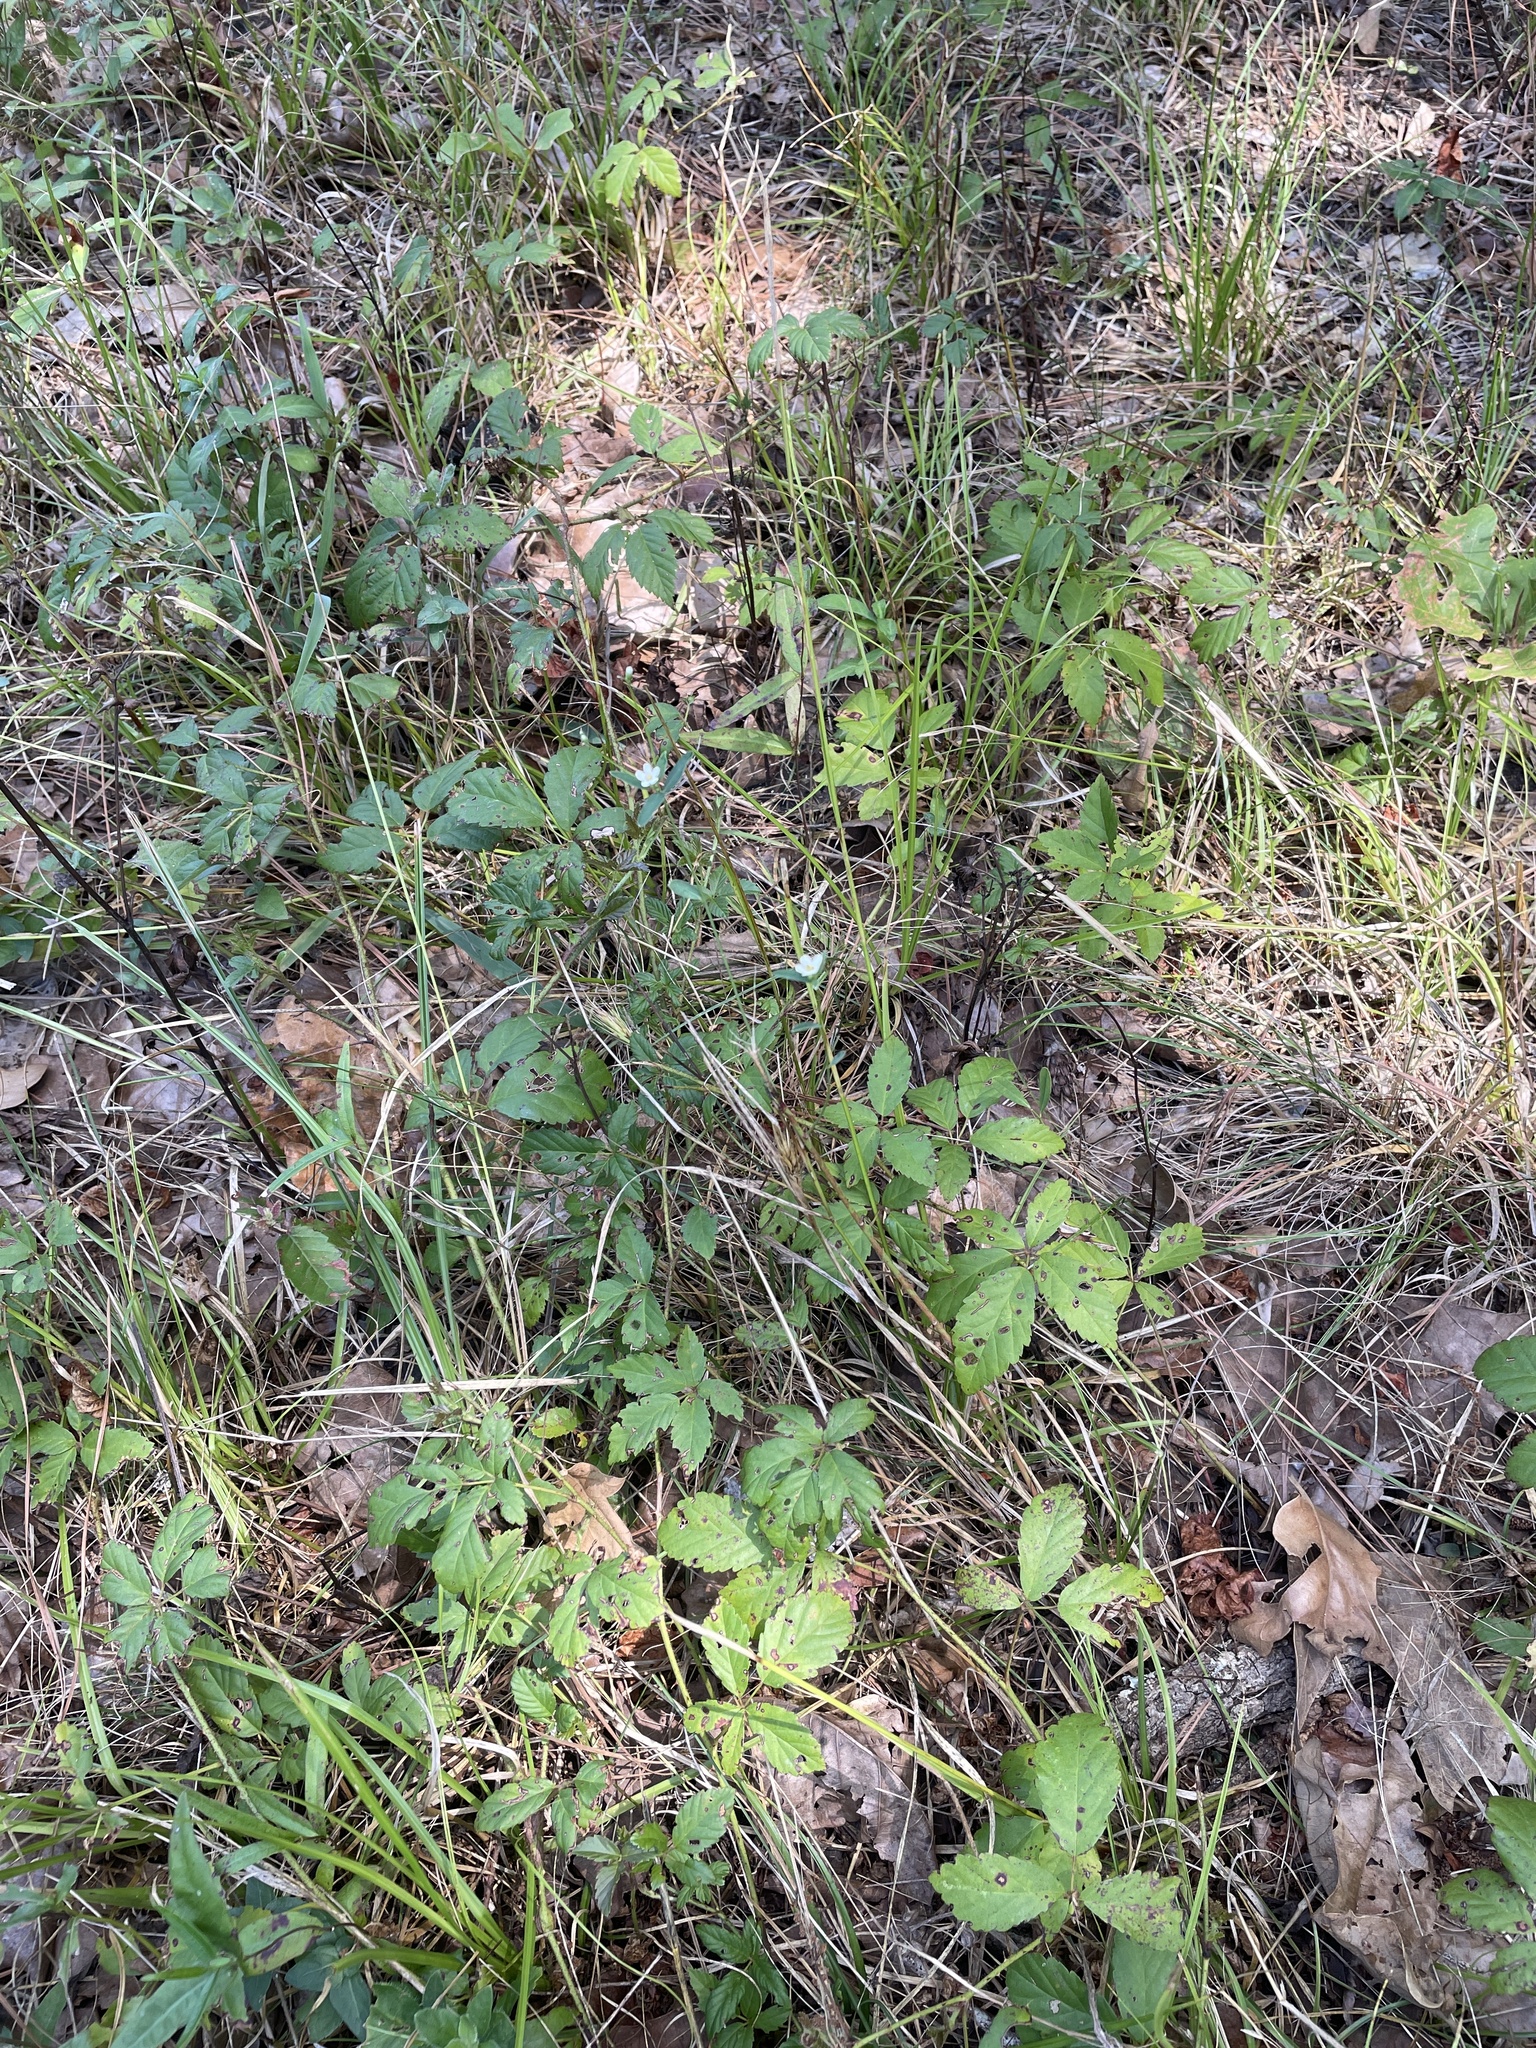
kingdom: Plantae
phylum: Tracheophyta
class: Magnoliopsida
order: Malpighiales
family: Euphorbiaceae
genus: Euphorbia
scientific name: Euphorbia corollata
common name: Flowering spurge
